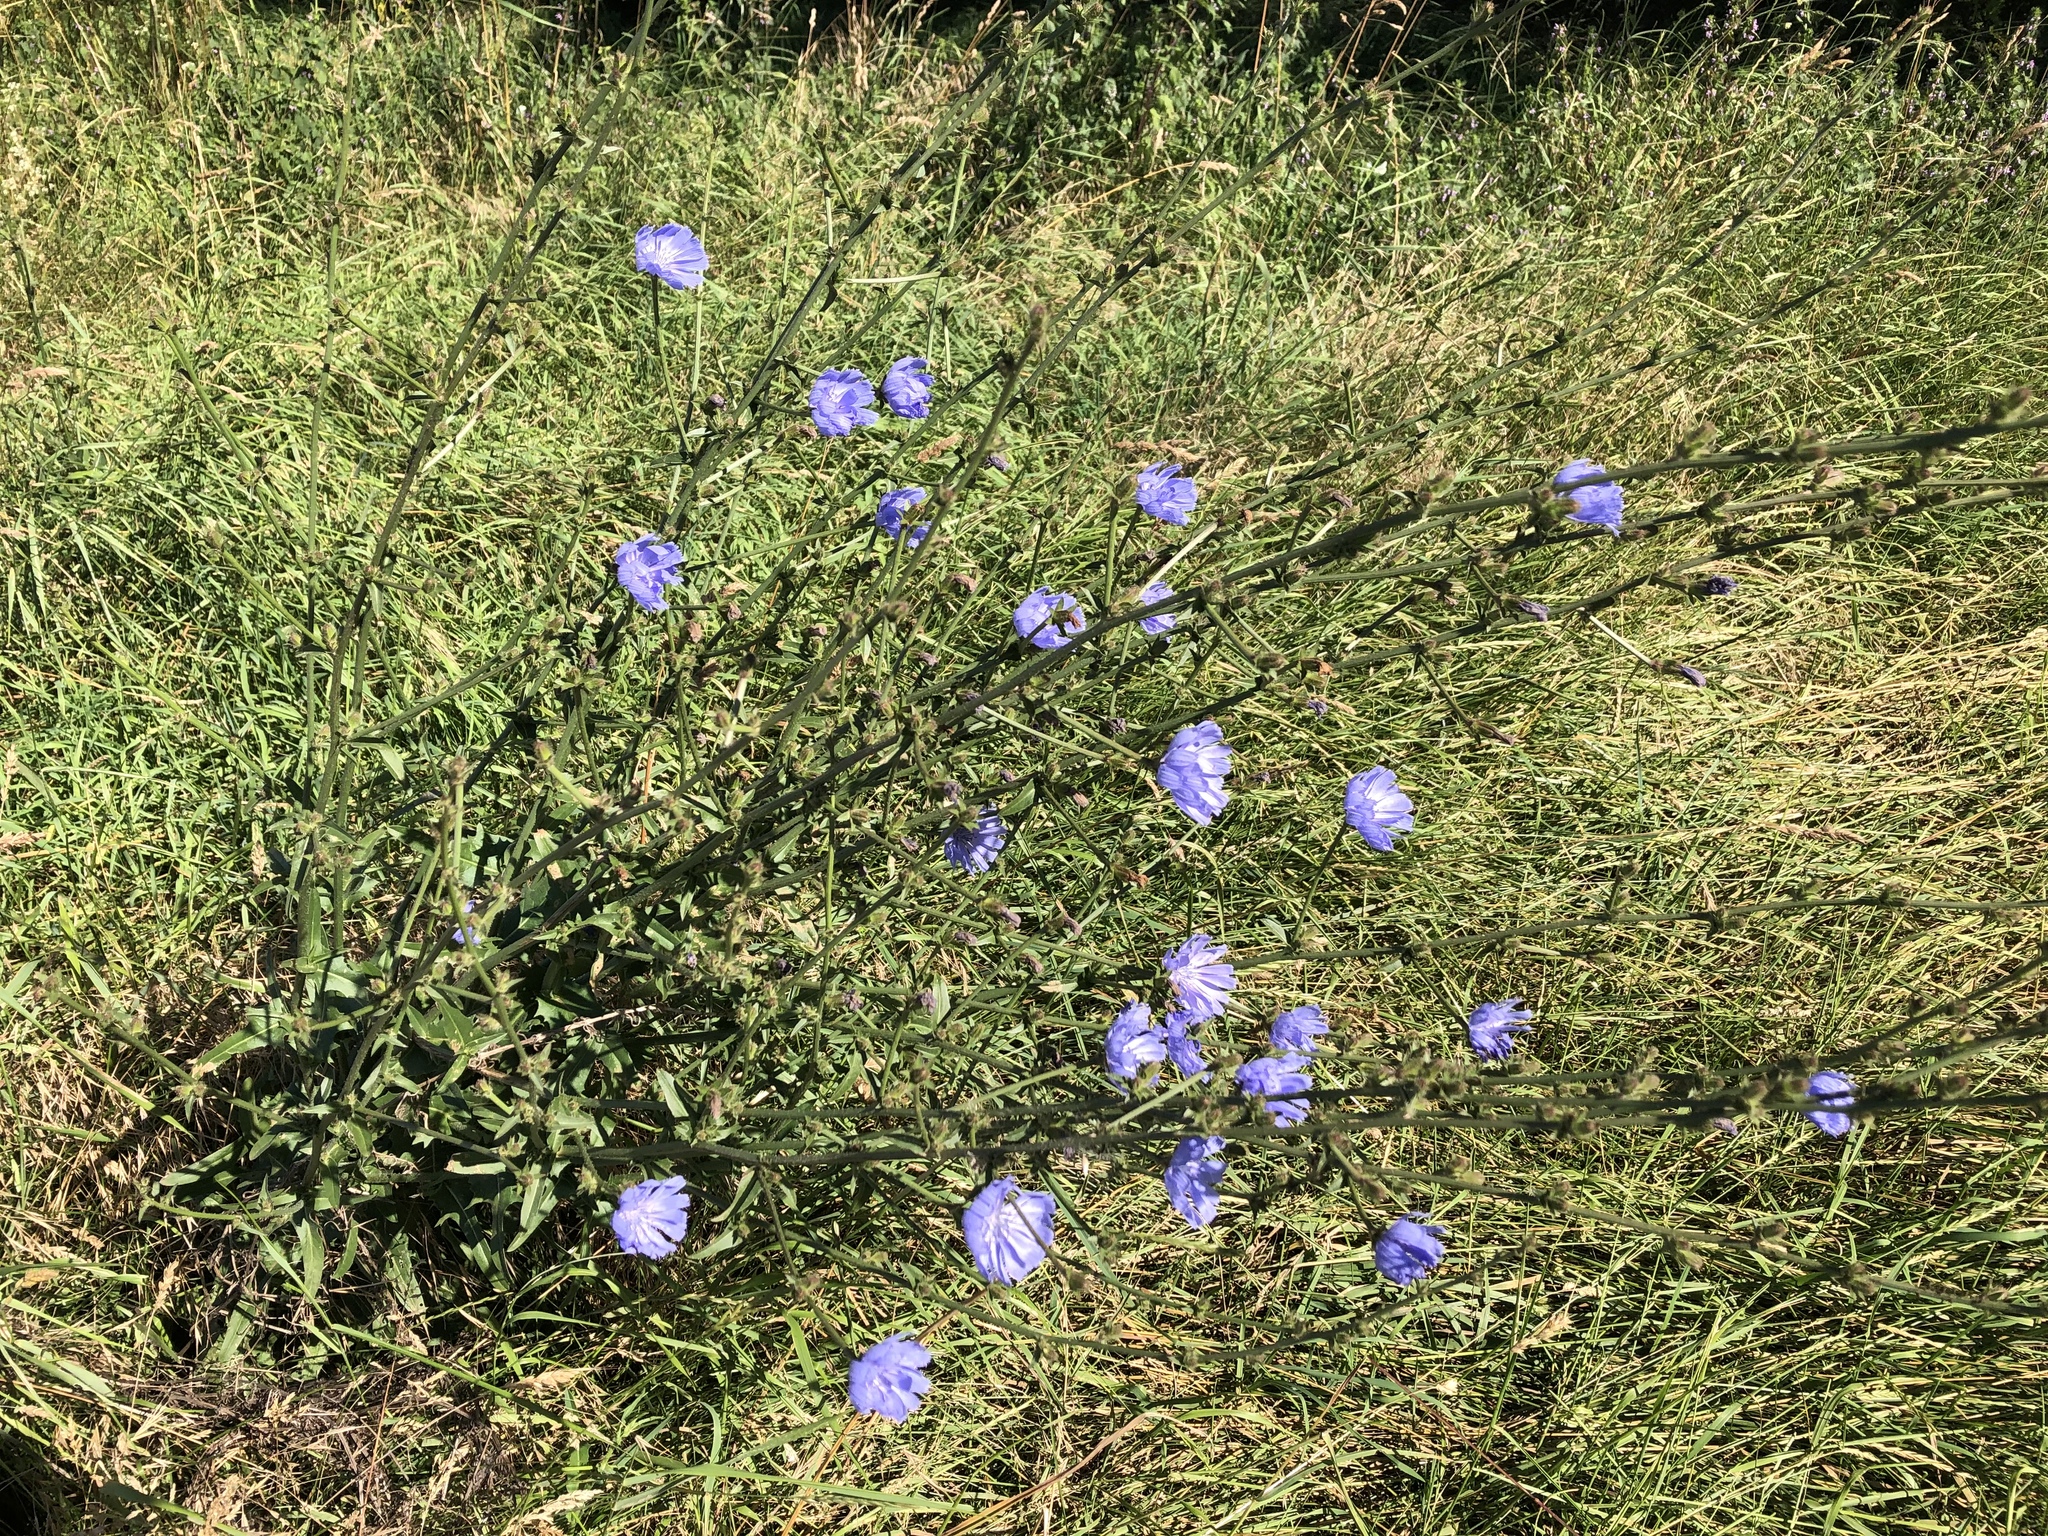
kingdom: Plantae
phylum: Tracheophyta
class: Magnoliopsida
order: Asterales
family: Asteraceae
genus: Cichorium
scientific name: Cichorium intybus
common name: Chicory
